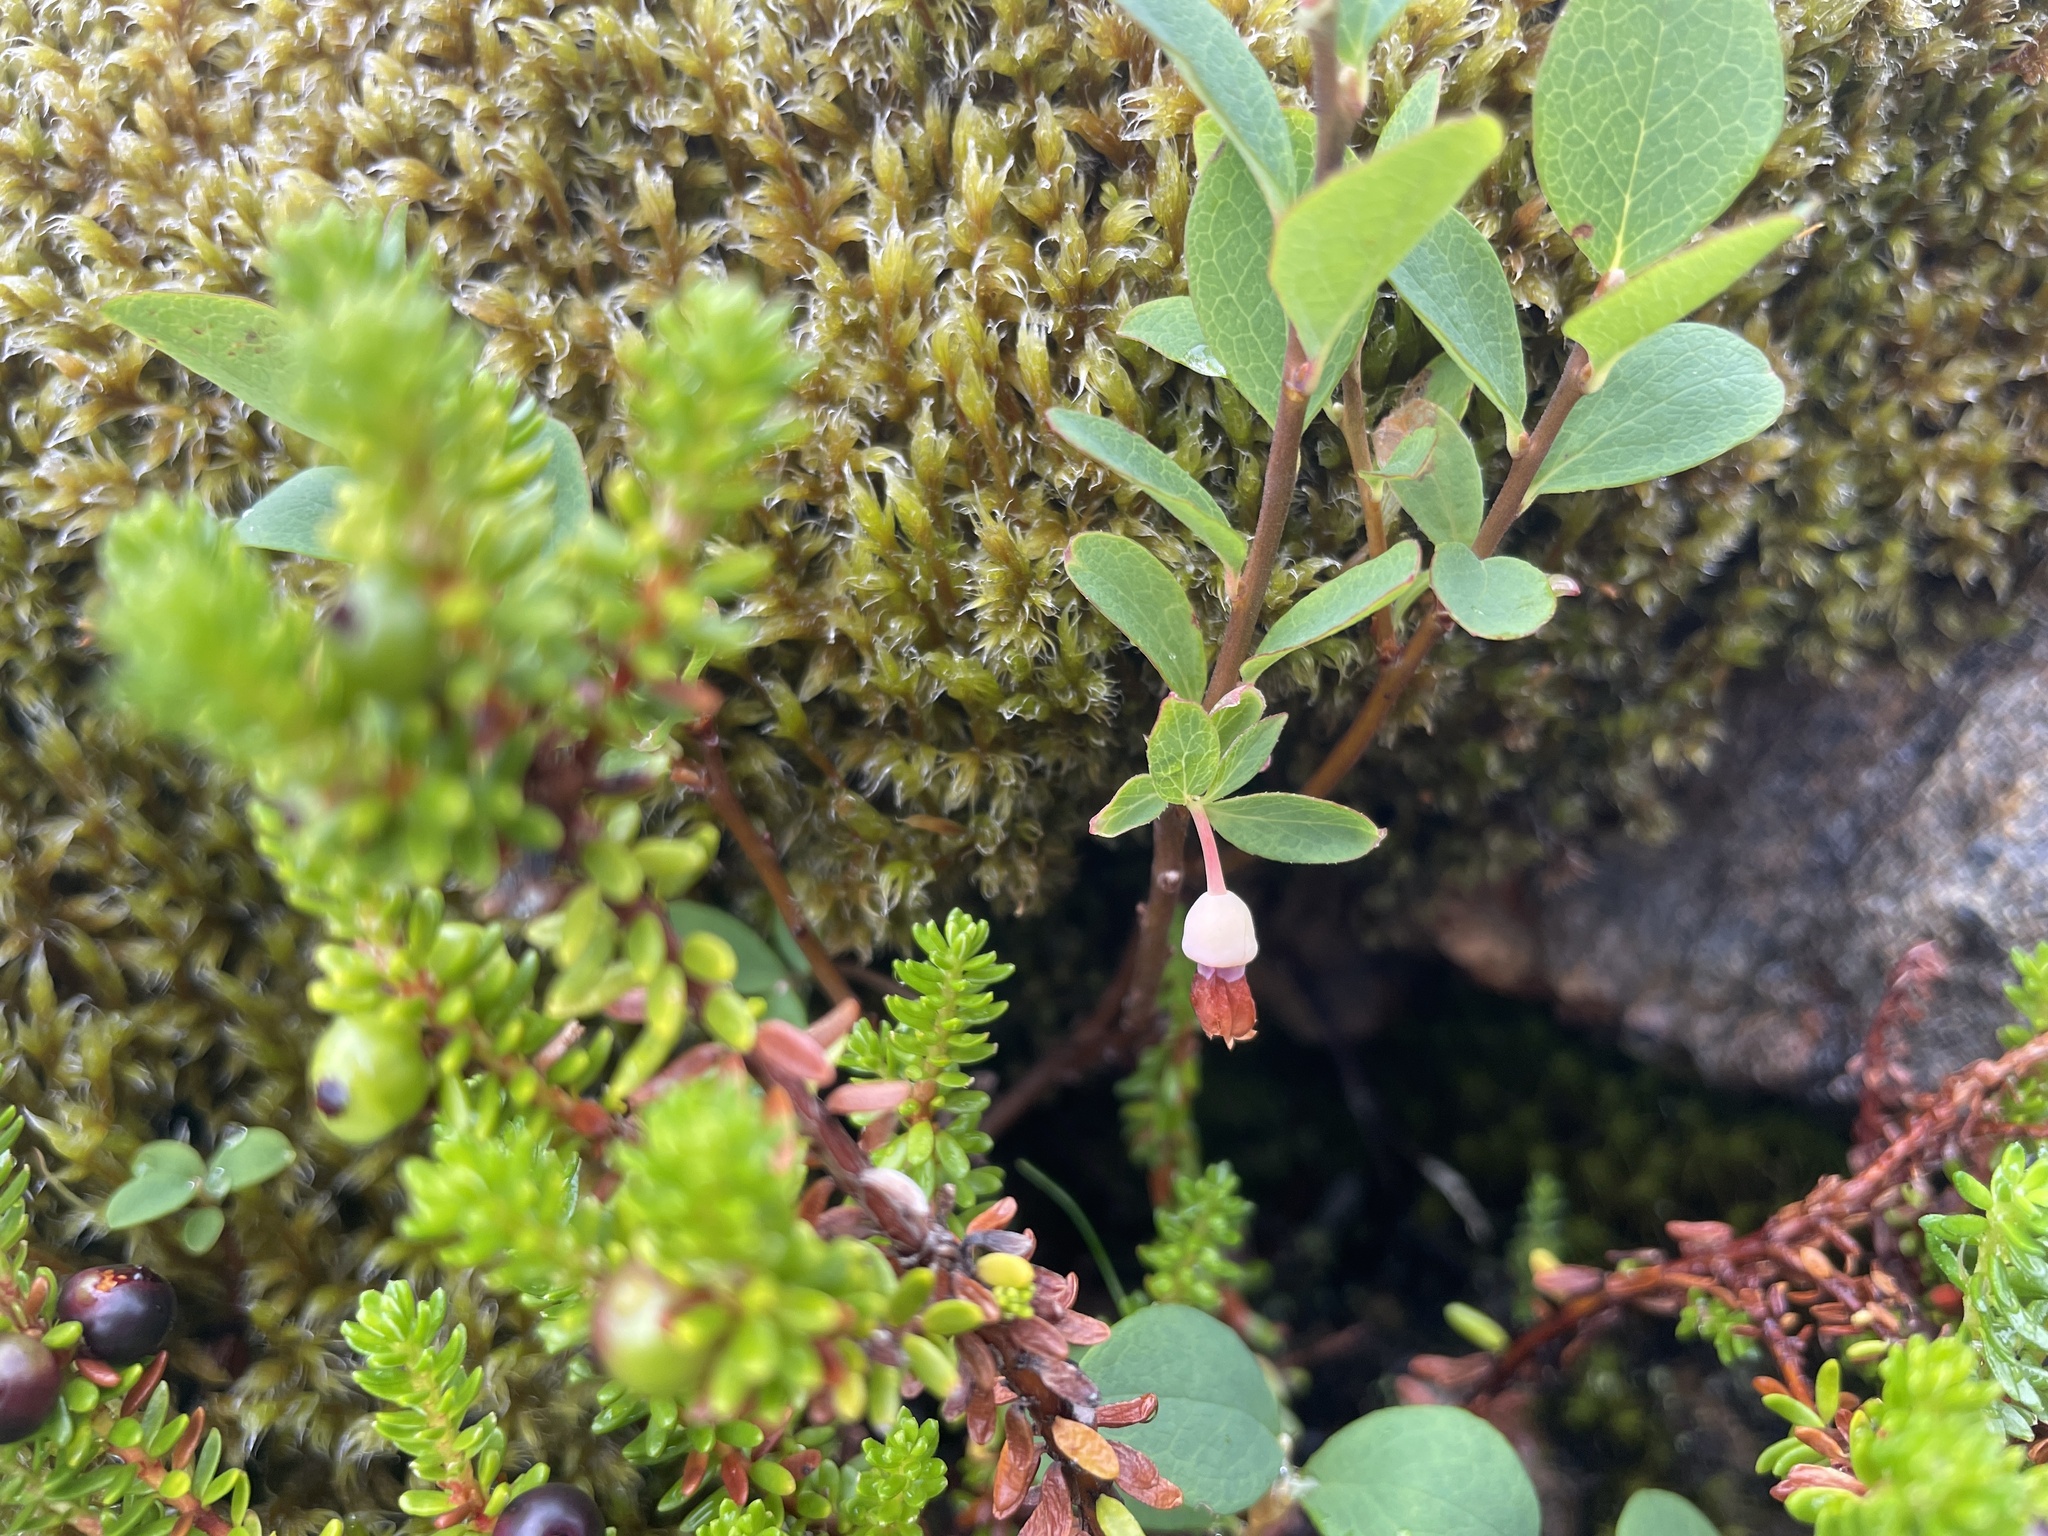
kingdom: Plantae
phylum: Tracheophyta
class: Magnoliopsida
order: Ericales
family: Ericaceae
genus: Vaccinium
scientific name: Vaccinium uliginosum
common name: Bog bilberry
